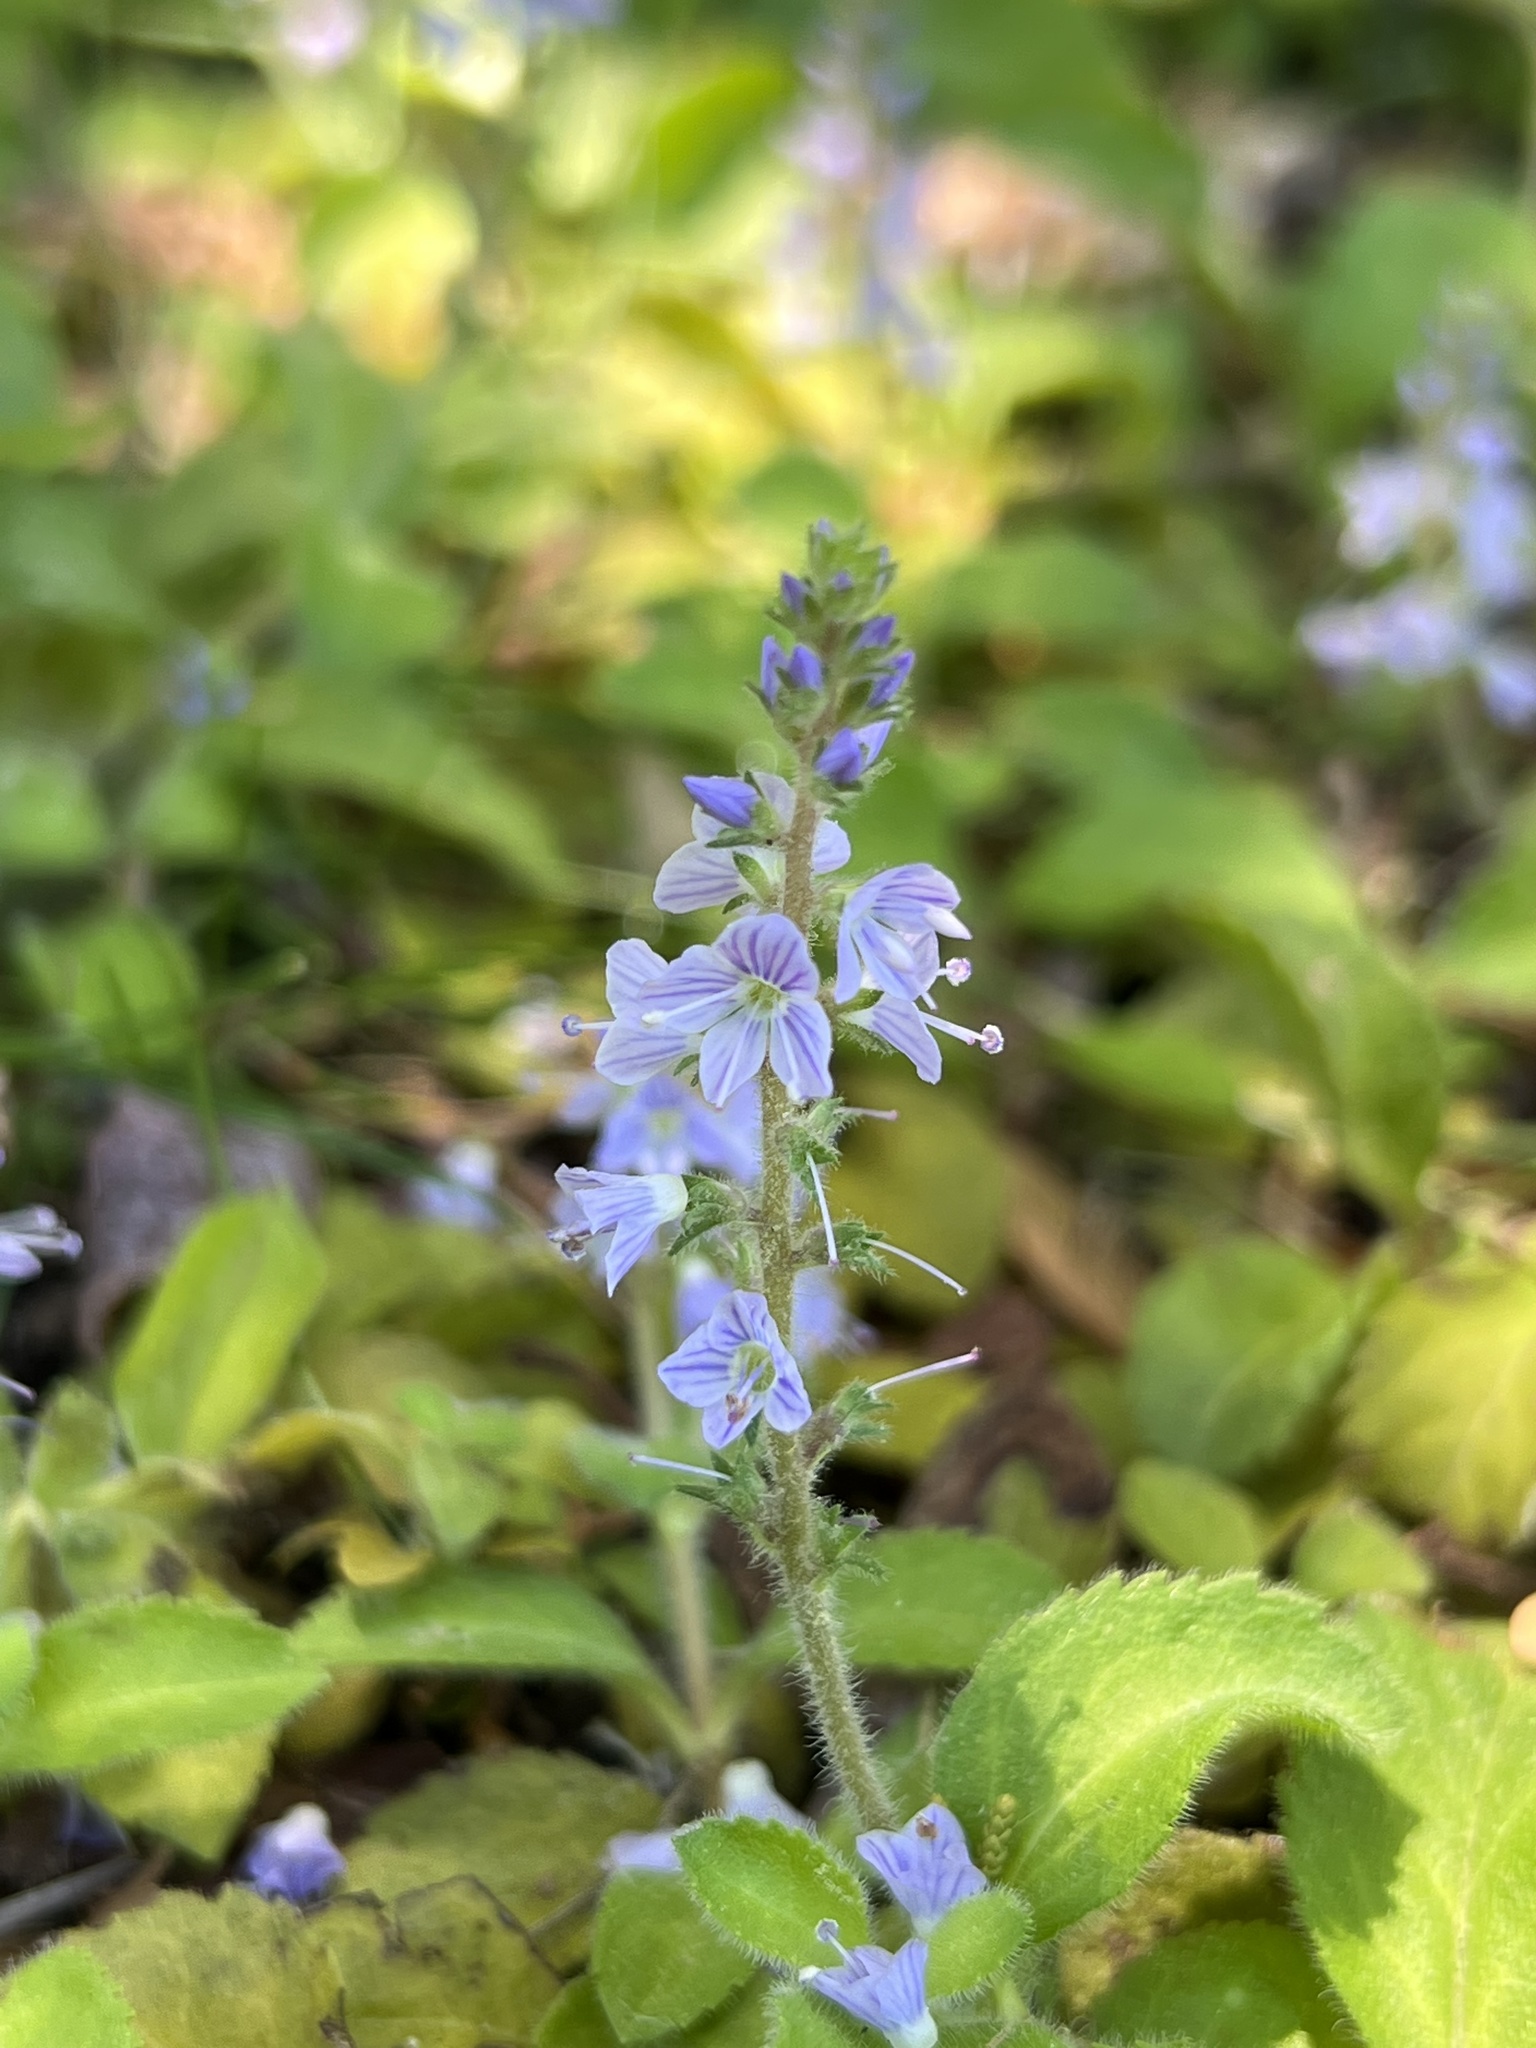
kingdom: Plantae
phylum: Tracheophyta
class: Magnoliopsida
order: Lamiales
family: Plantaginaceae
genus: Veronica
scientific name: Veronica officinalis
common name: Common speedwell
